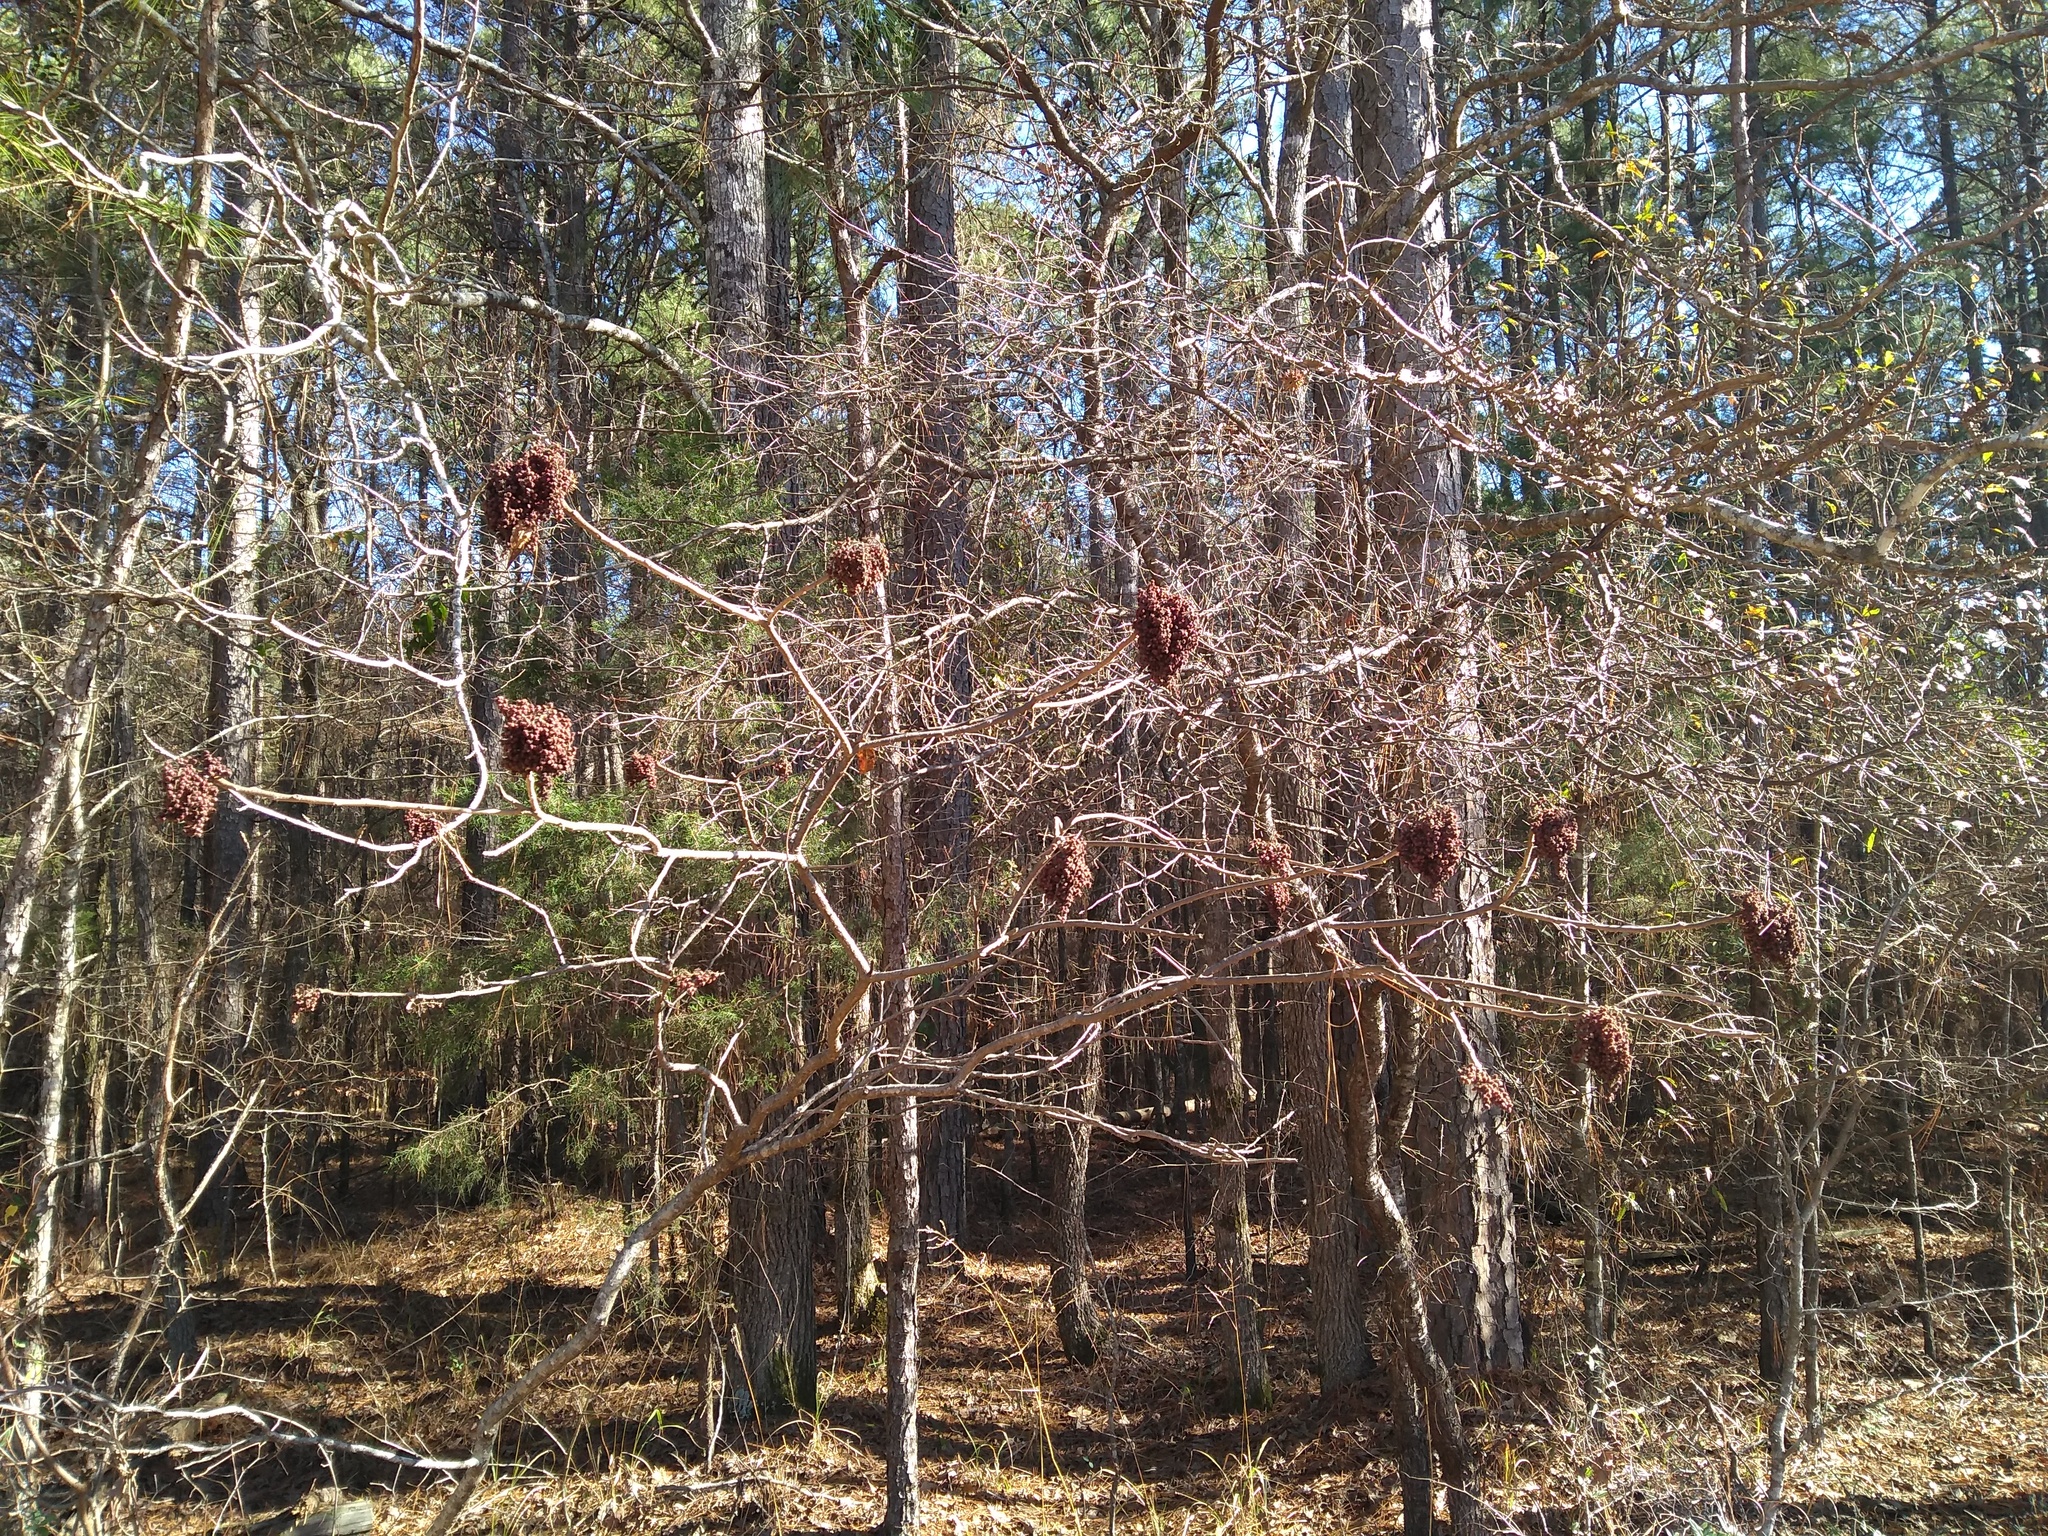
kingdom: Plantae
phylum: Tracheophyta
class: Magnoliopsida
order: Sapindales
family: Anacardiaceae
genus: Rhus
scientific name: Rhus copallina
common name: Shining sumac
